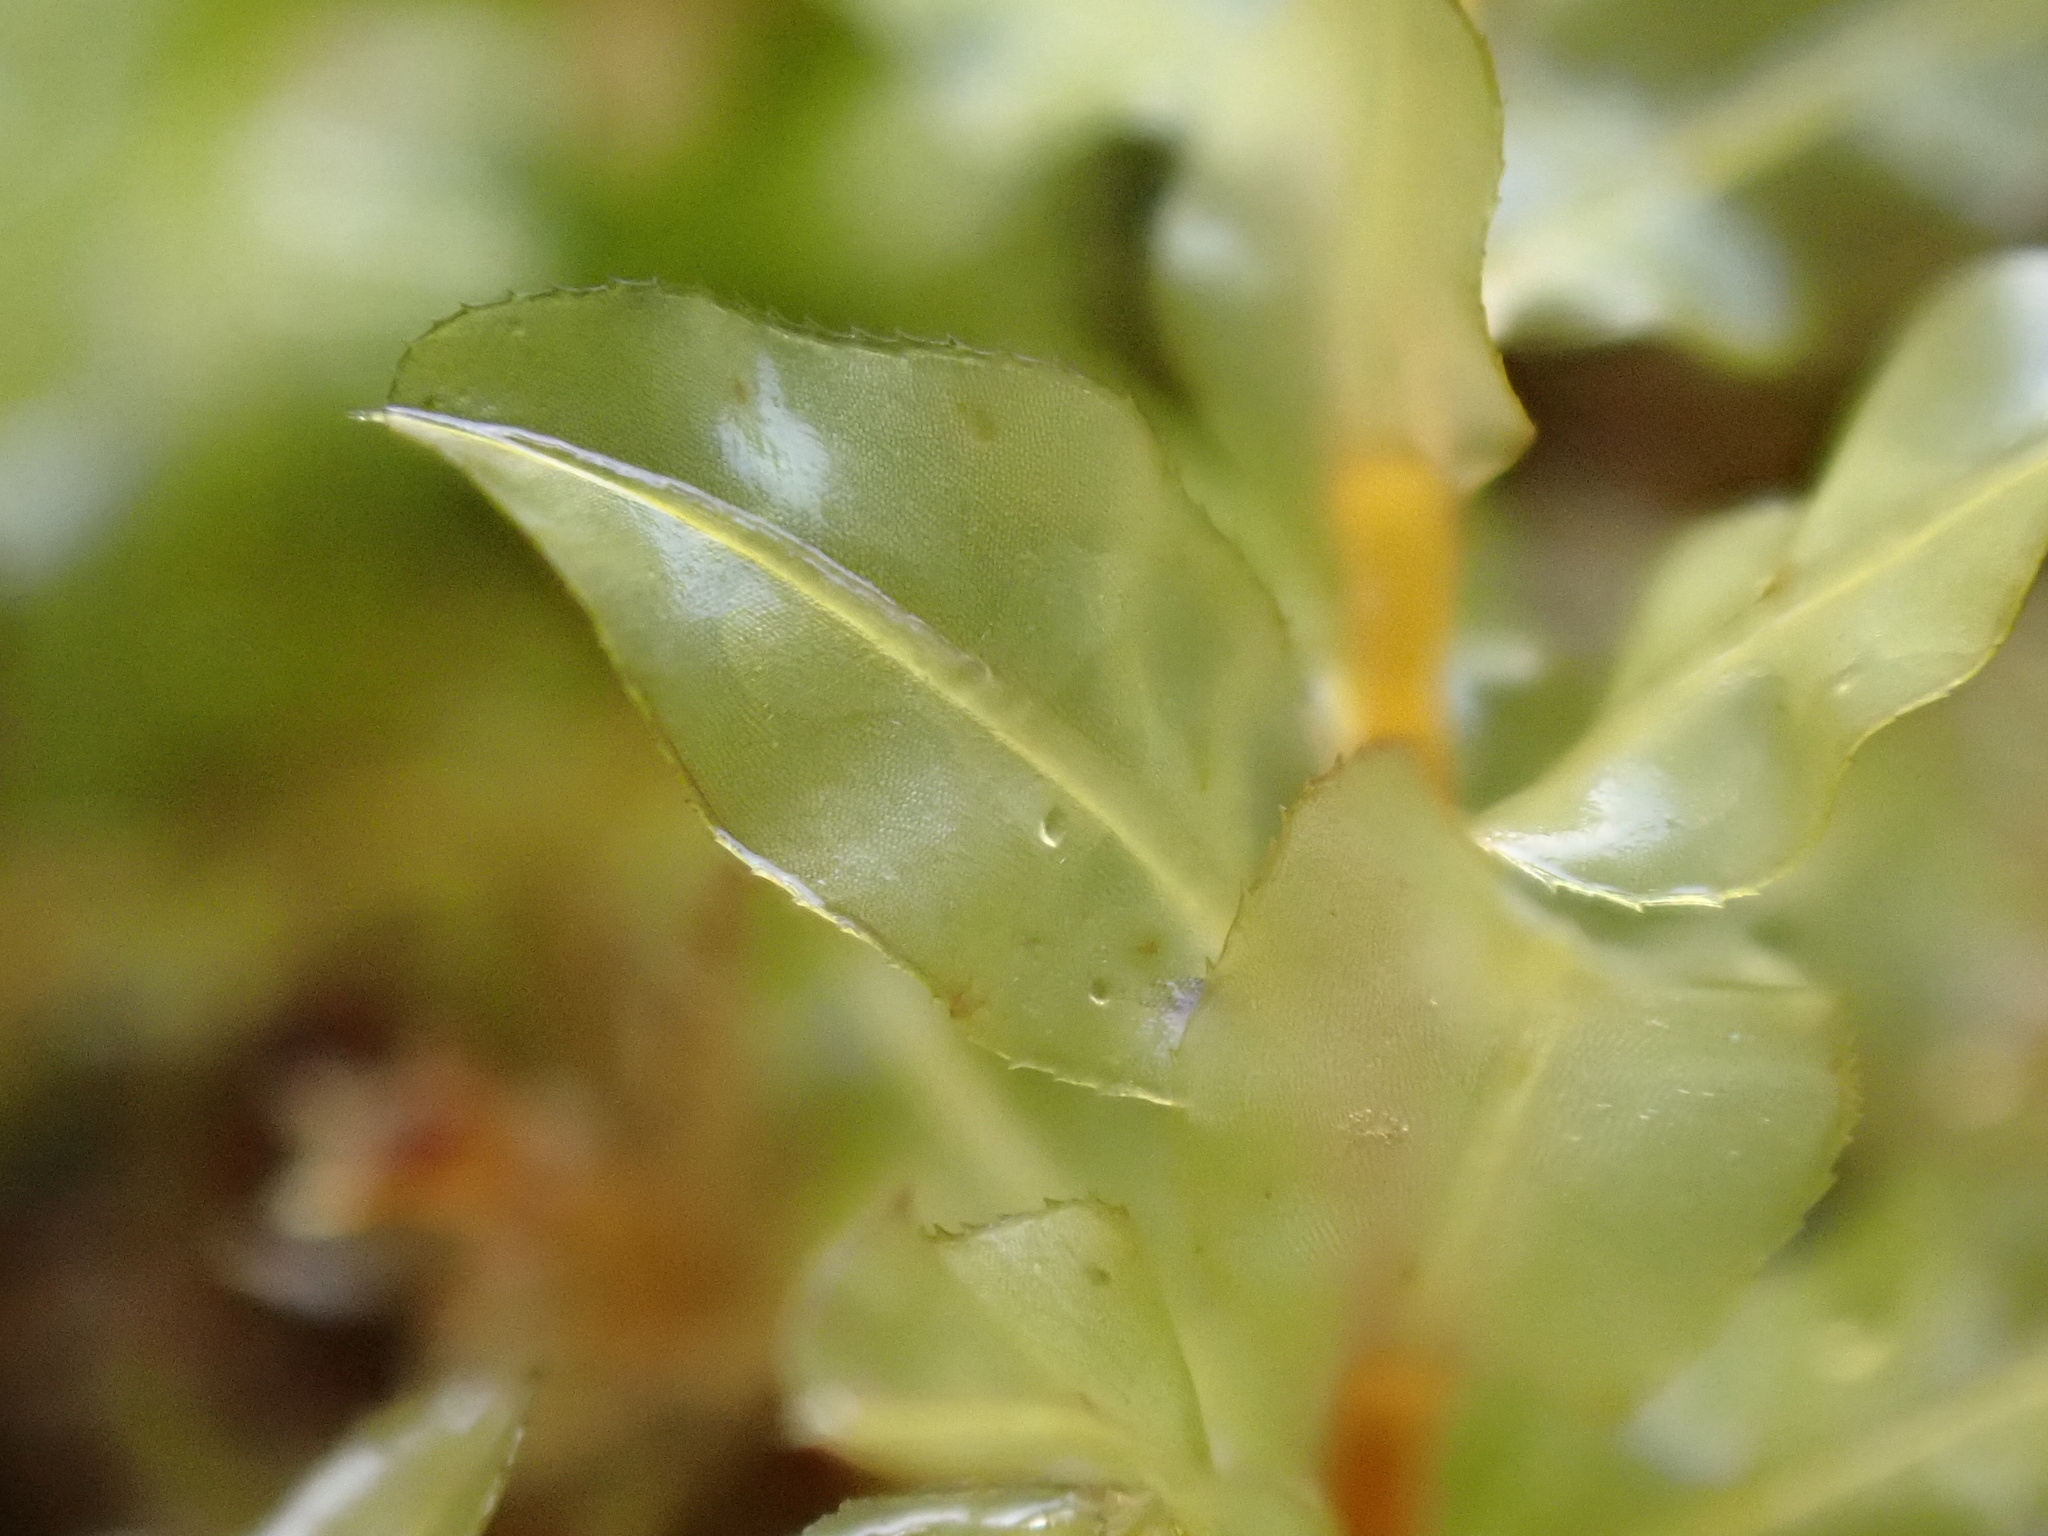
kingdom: Plantae
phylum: Bryophyta
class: Bryopsida
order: Bryales
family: Mniaceae
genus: Plagiomnium
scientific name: Plagiomnium undulatum
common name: Hart's-tongue thyme-moss
